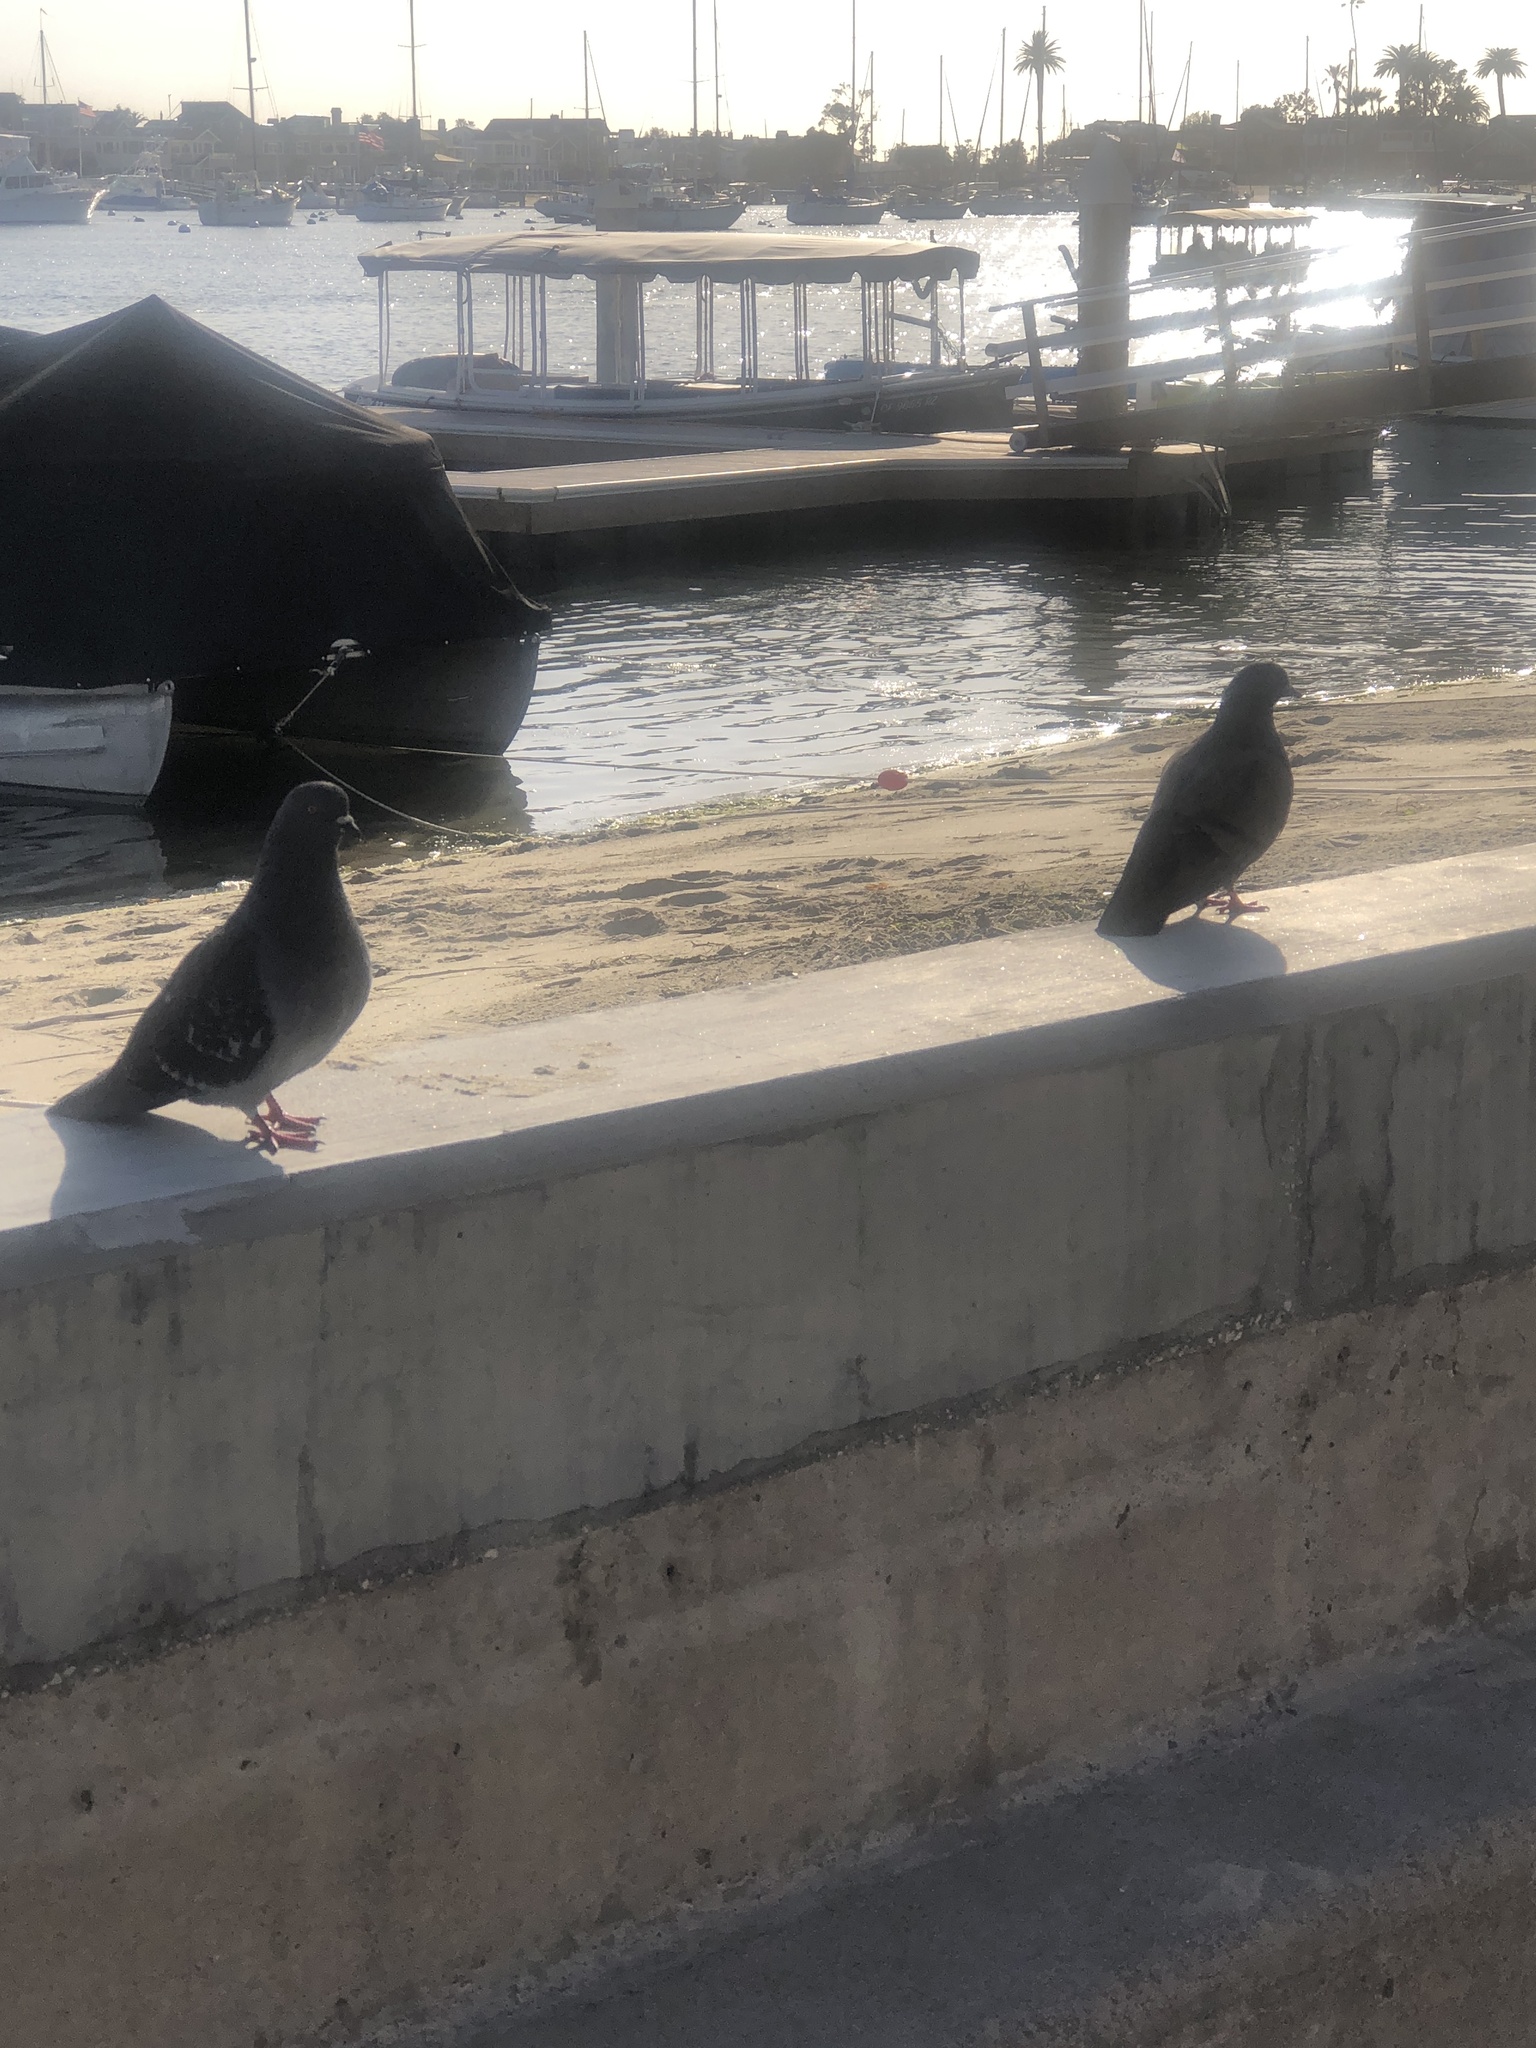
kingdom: Animalia
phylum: Chordata
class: Aves
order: Columbiformes
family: Columbidae
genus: Columba
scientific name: Columba livia
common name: Rock pigeon
